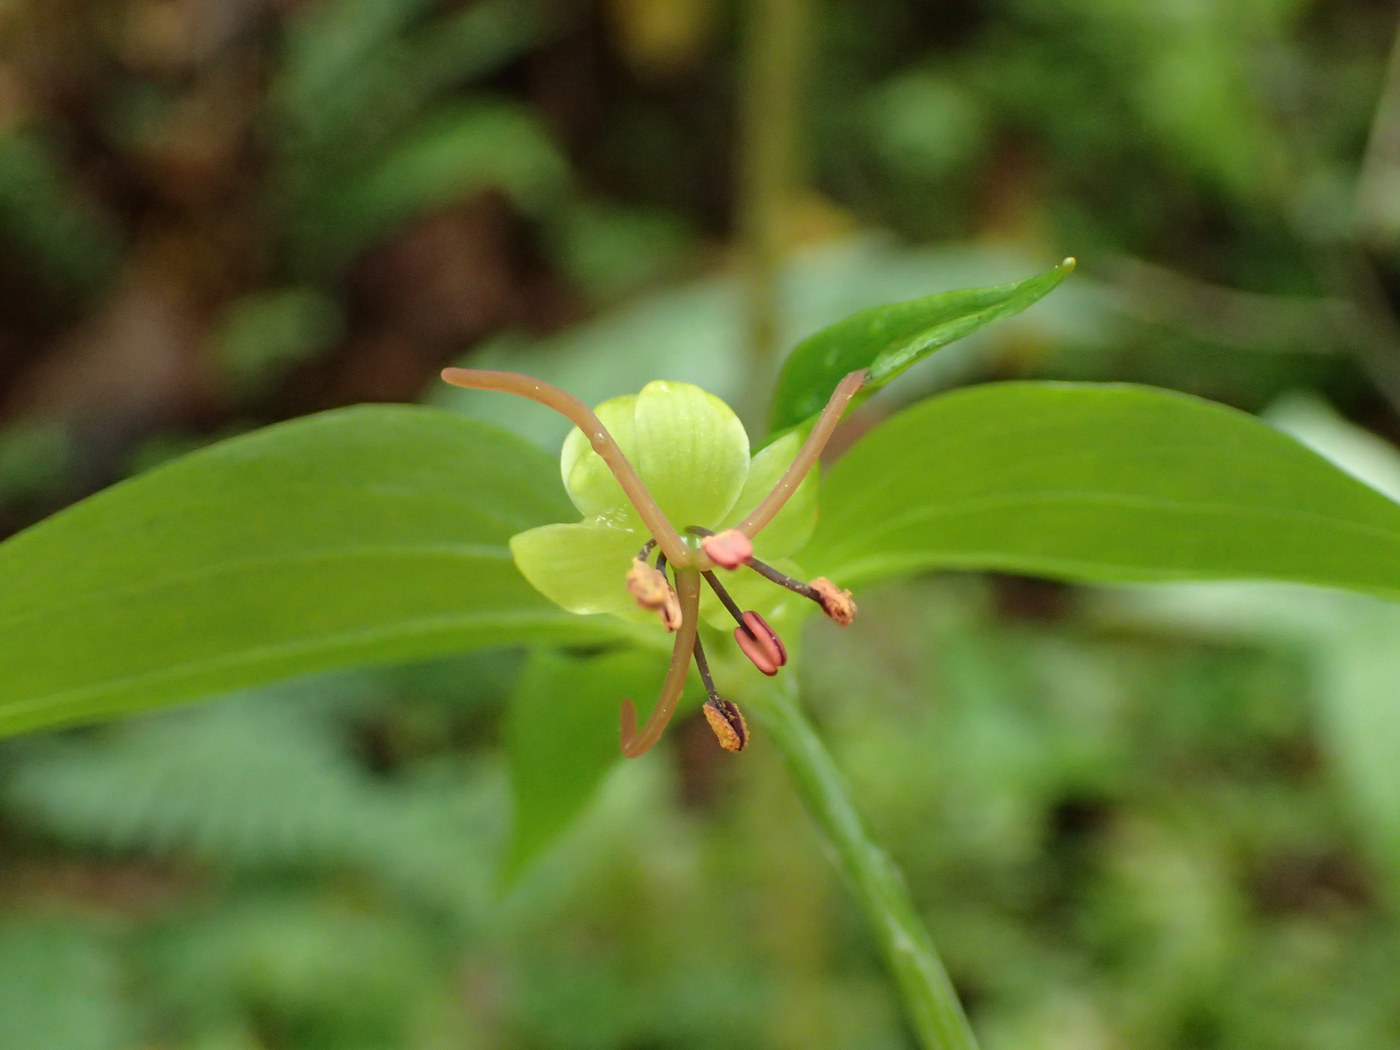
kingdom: Plantae
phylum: Tracheophyta
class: Liliopsida
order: Liliales
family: Liliaceae
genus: Medeola
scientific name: Medeola virginiana
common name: Indian cucumber-root
